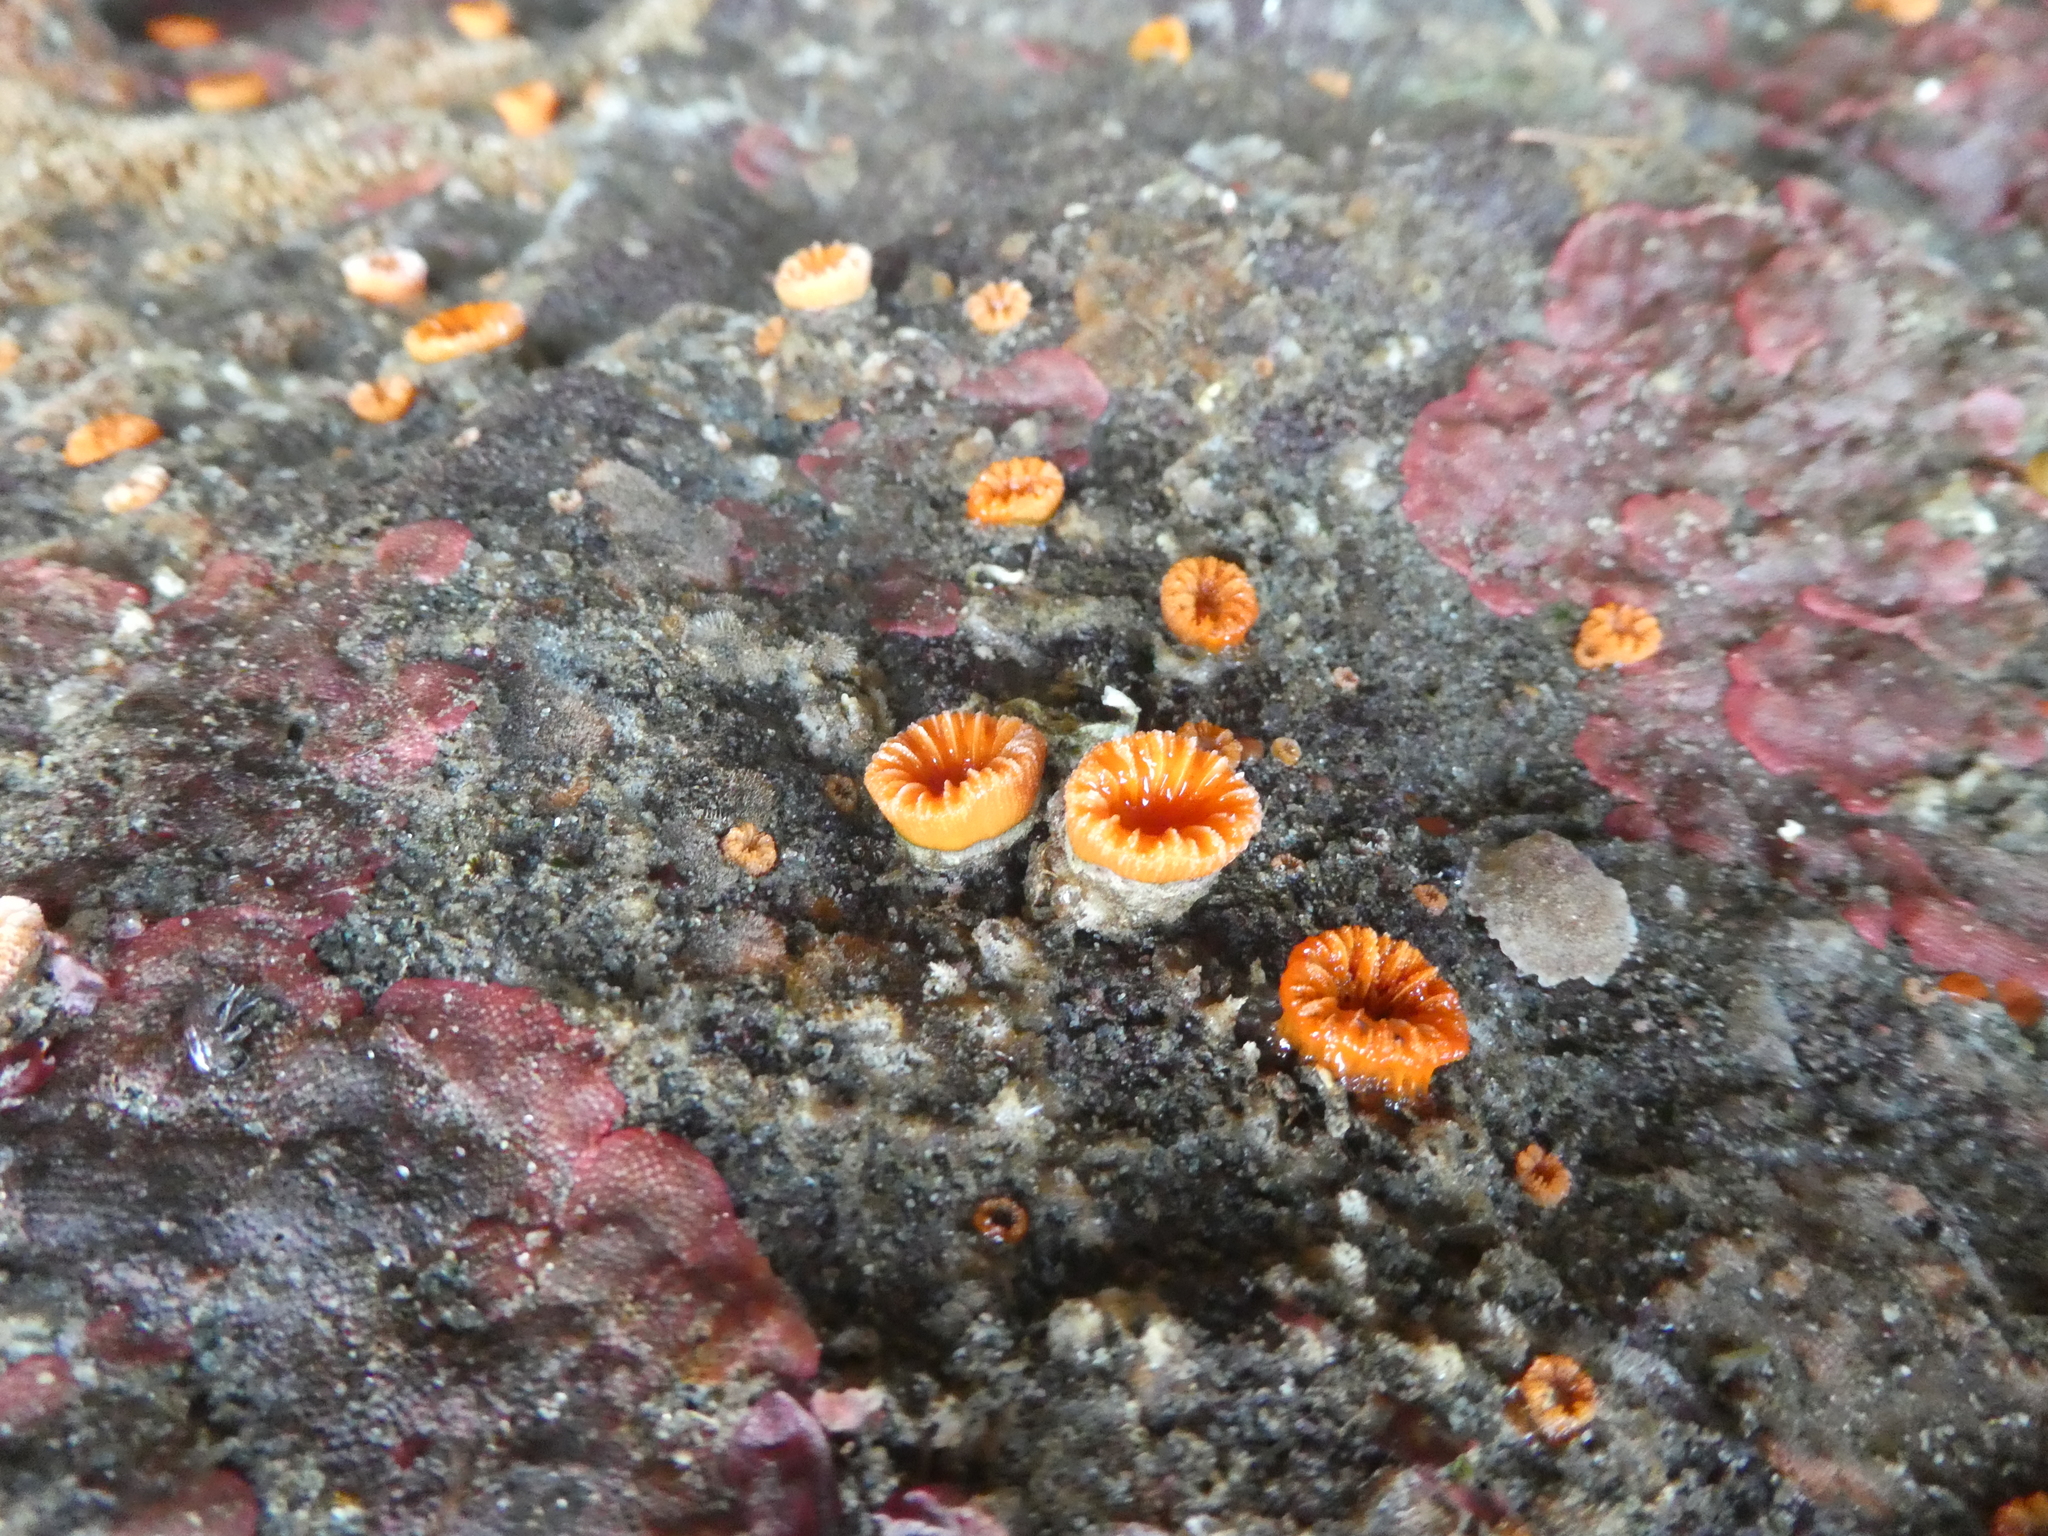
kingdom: Animalia
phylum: Cnidaria
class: Anthozoa
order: Scleractinia
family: Dendrophylliidae
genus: Balanophyllia
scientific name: Balanophyllia elegans
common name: Orange stony coral
